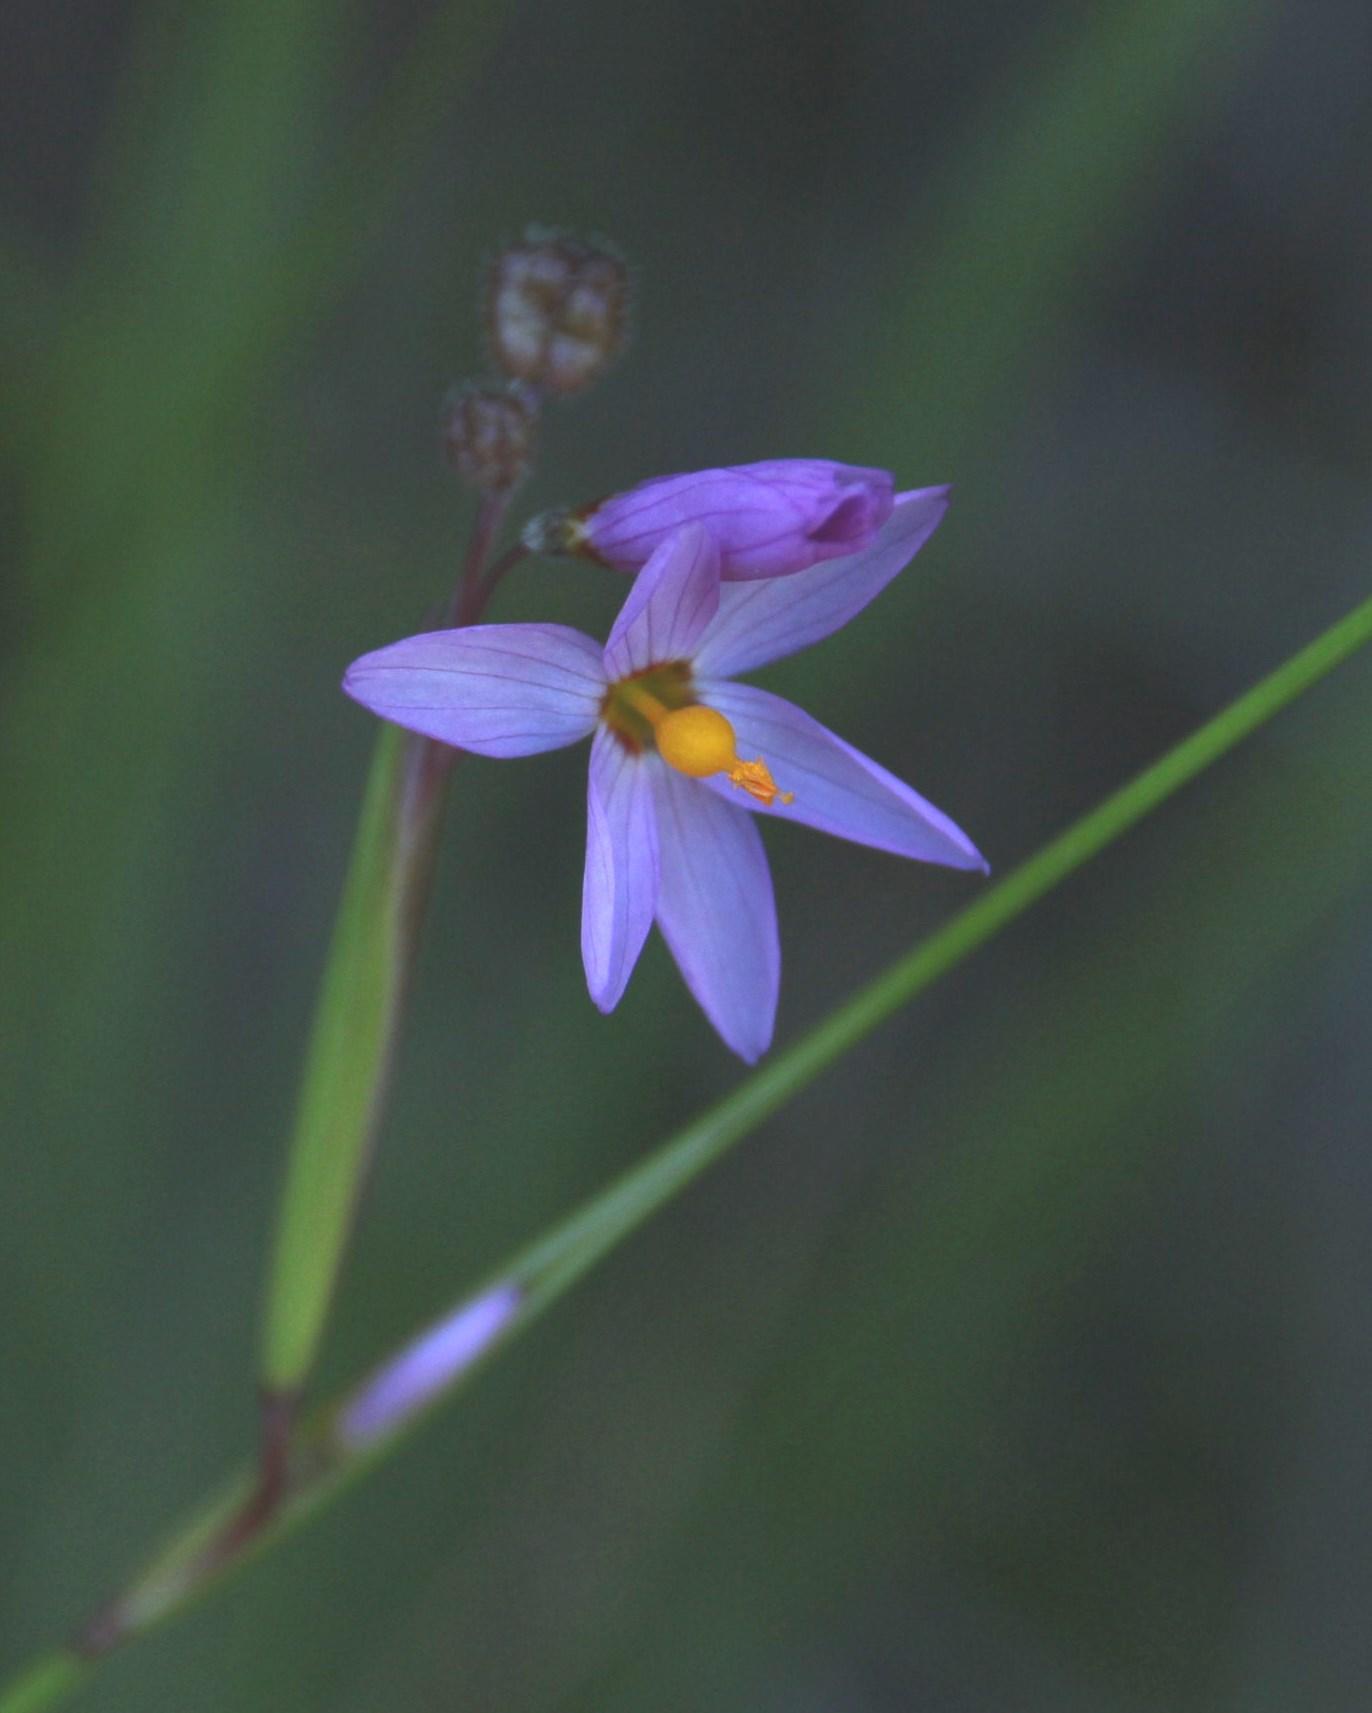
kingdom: Plantae
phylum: Tracheophyta
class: Liliopsida
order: Asparagales
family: Iridaceae
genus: Olsynium
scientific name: Olsynium scirpoideum
